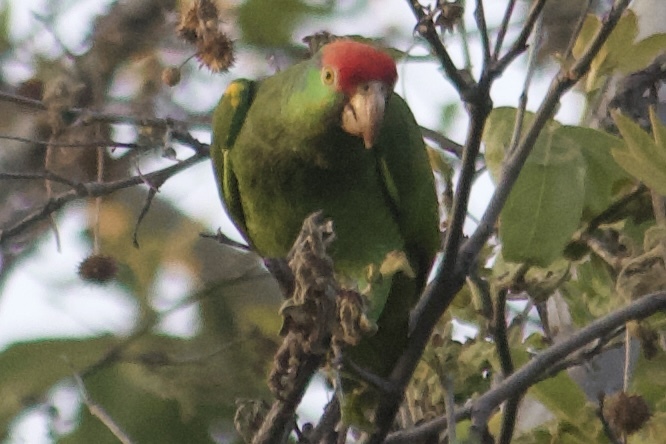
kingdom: Animalia
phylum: Chordata
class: Aves
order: Psittaciformes
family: Psittacidae
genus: Amazona
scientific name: Amazona viridigenalis
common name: Red-crowned amazon
